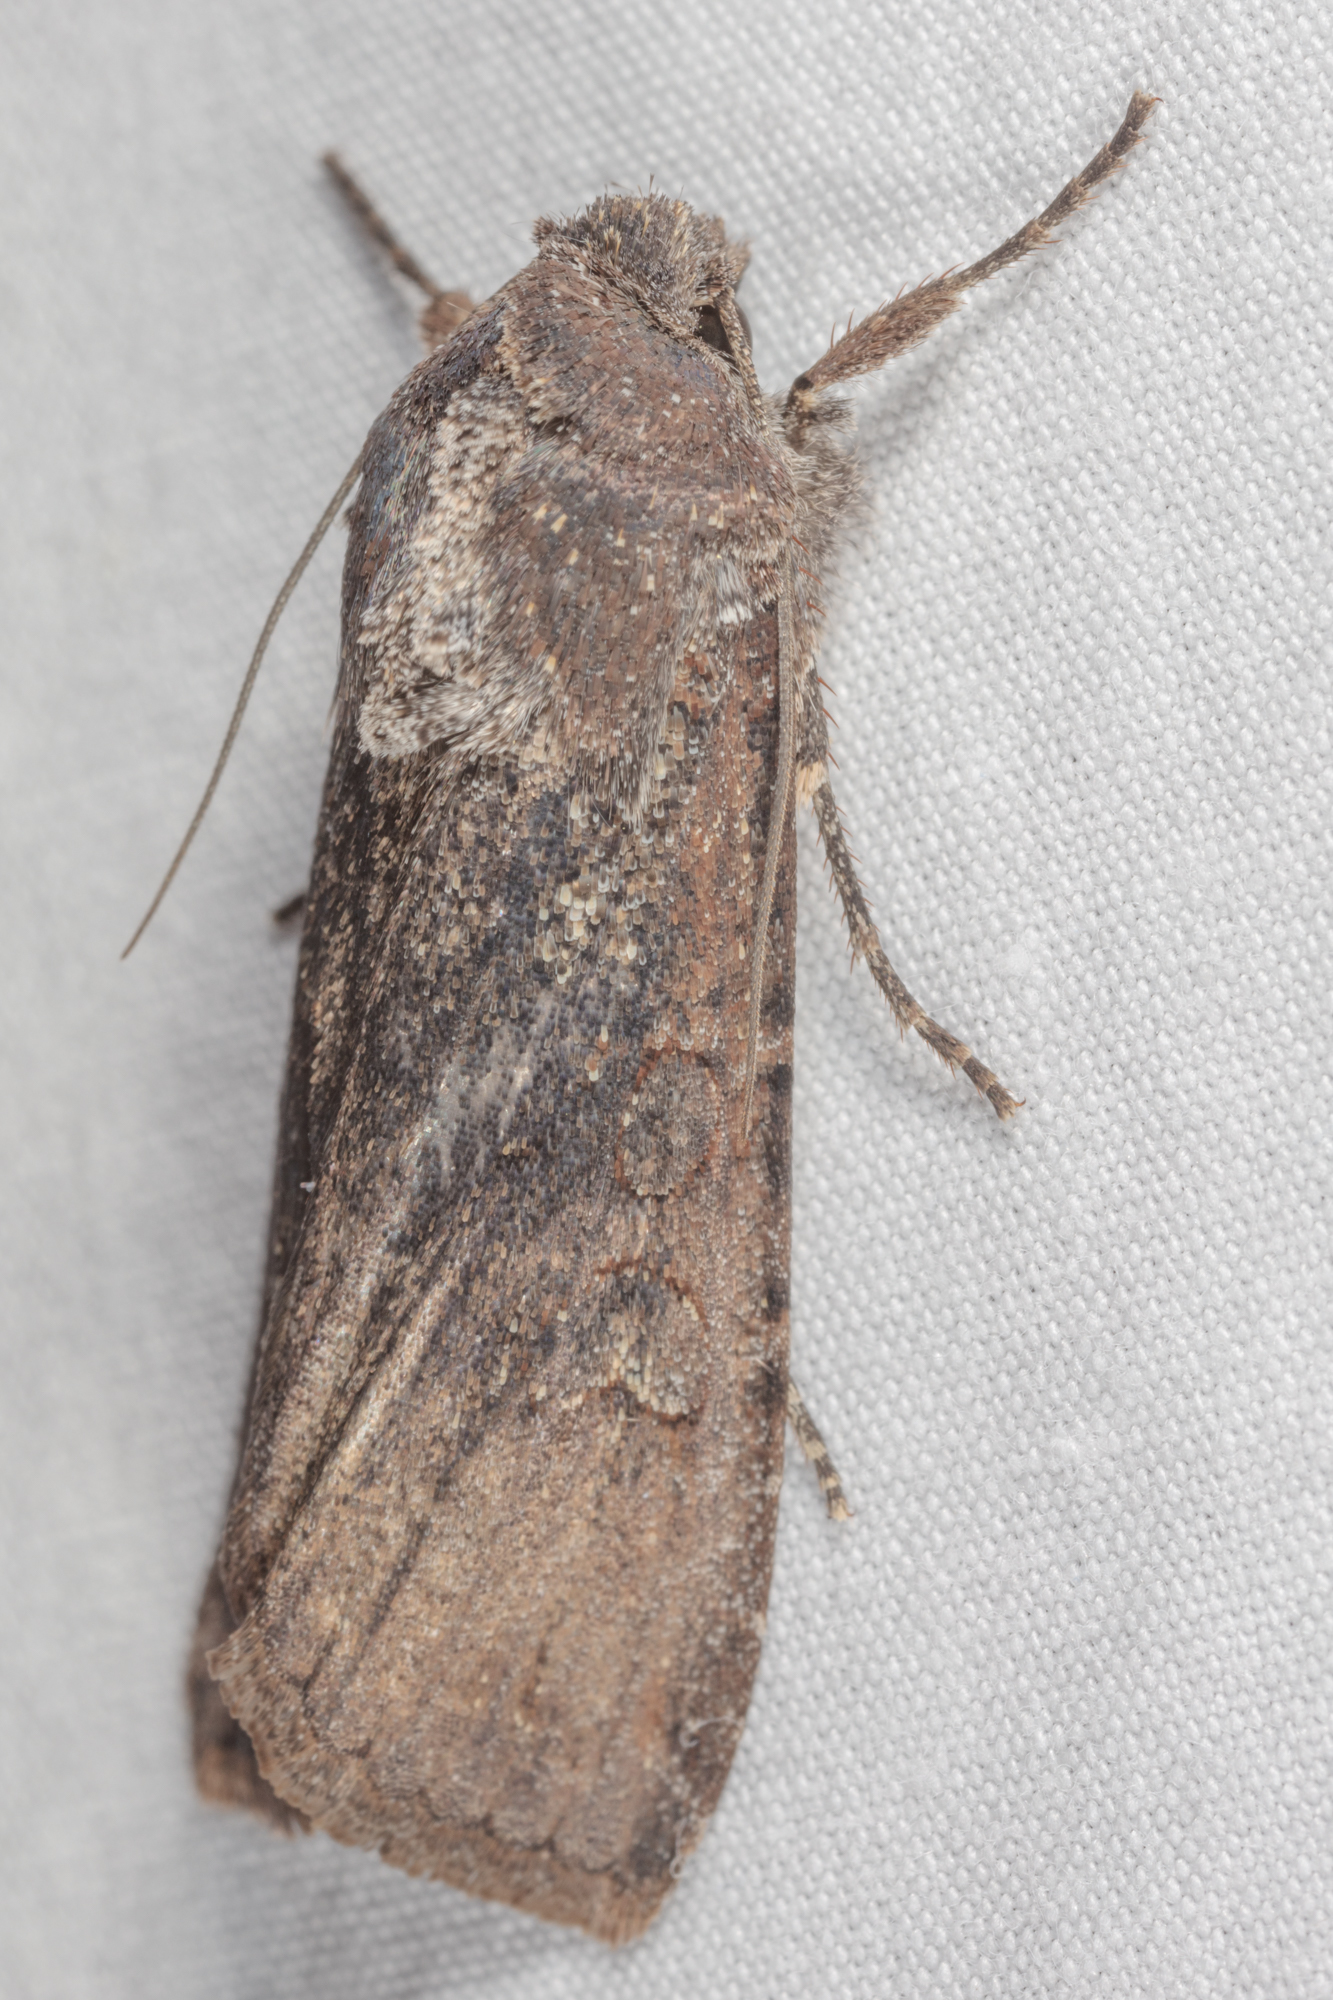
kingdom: Animalia
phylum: Arthropoda
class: Insecta
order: Lepidoptera
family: Noctuidae
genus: Peridroma
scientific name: Peridroma saucia
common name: Pearly underwing
